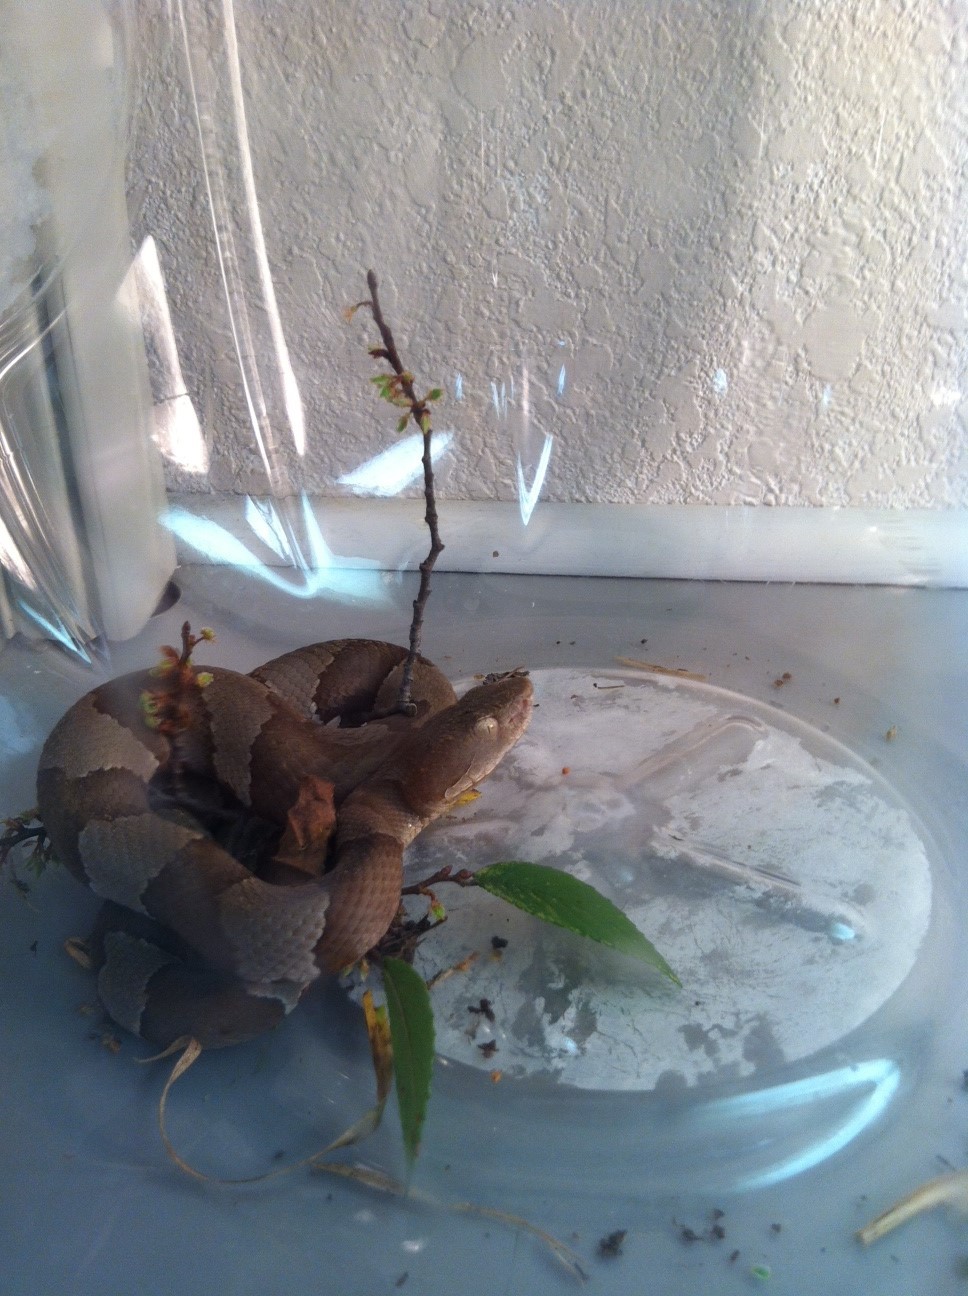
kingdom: Animalia
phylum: Chordata
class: Squamata
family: Viperidae
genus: Agkistrodon
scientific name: Agkistrodon laticinctus
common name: Broad-banded copperhead
